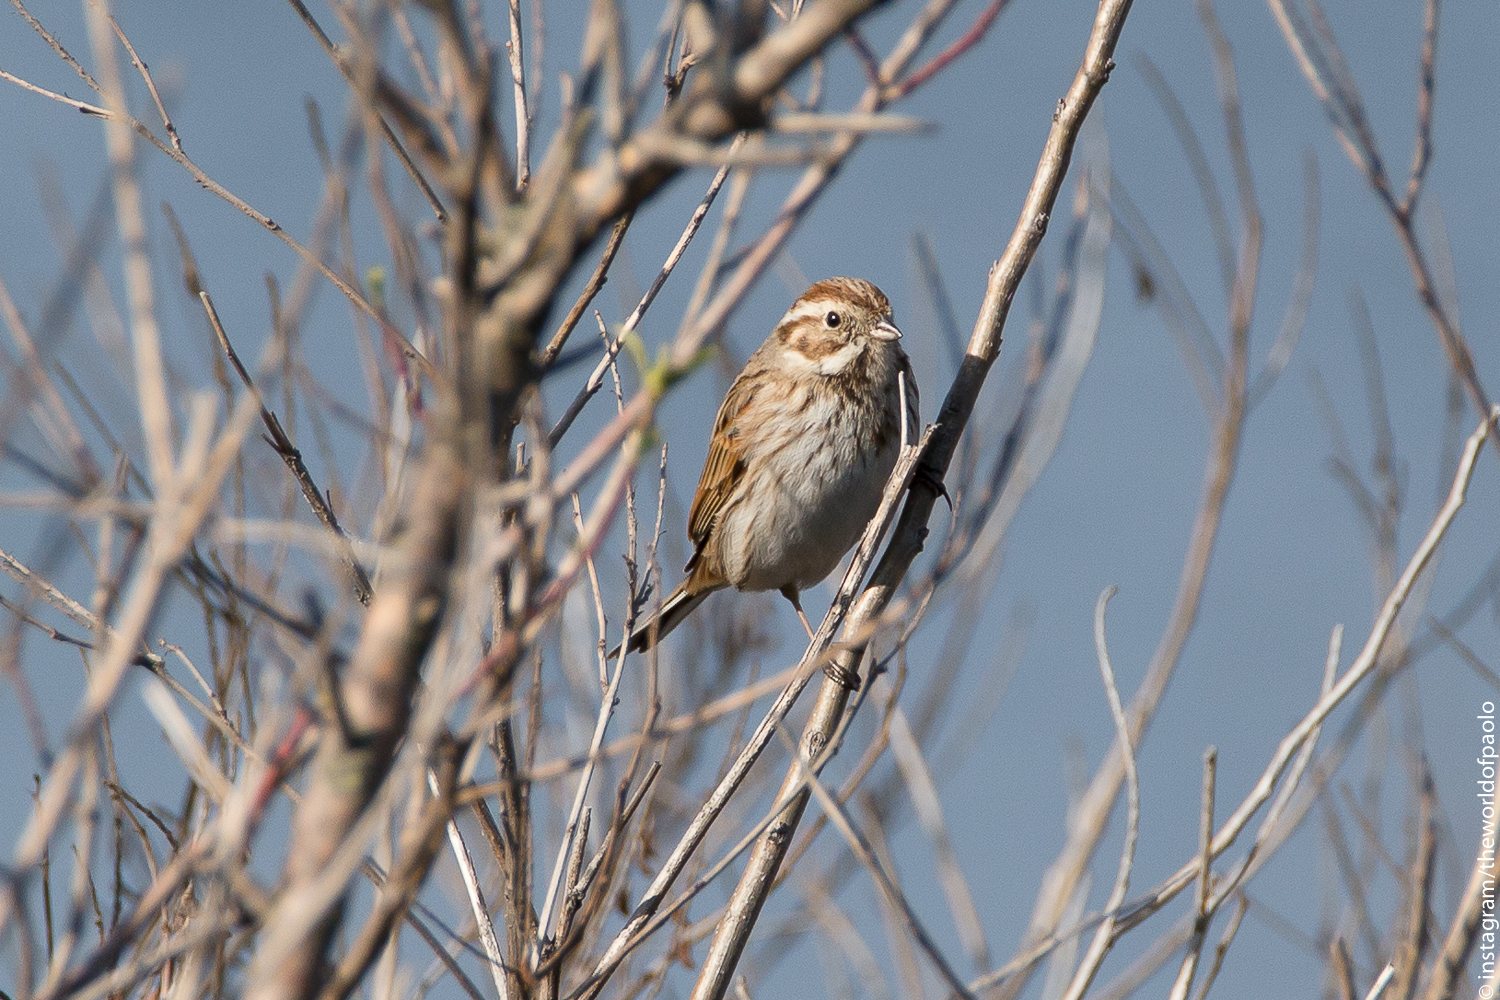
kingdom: Animalia
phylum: Chordata
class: Aves
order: Passeriformes
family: Emberizidae
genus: Emberiza
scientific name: Emberiza schoeniclus
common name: Reed bunting
